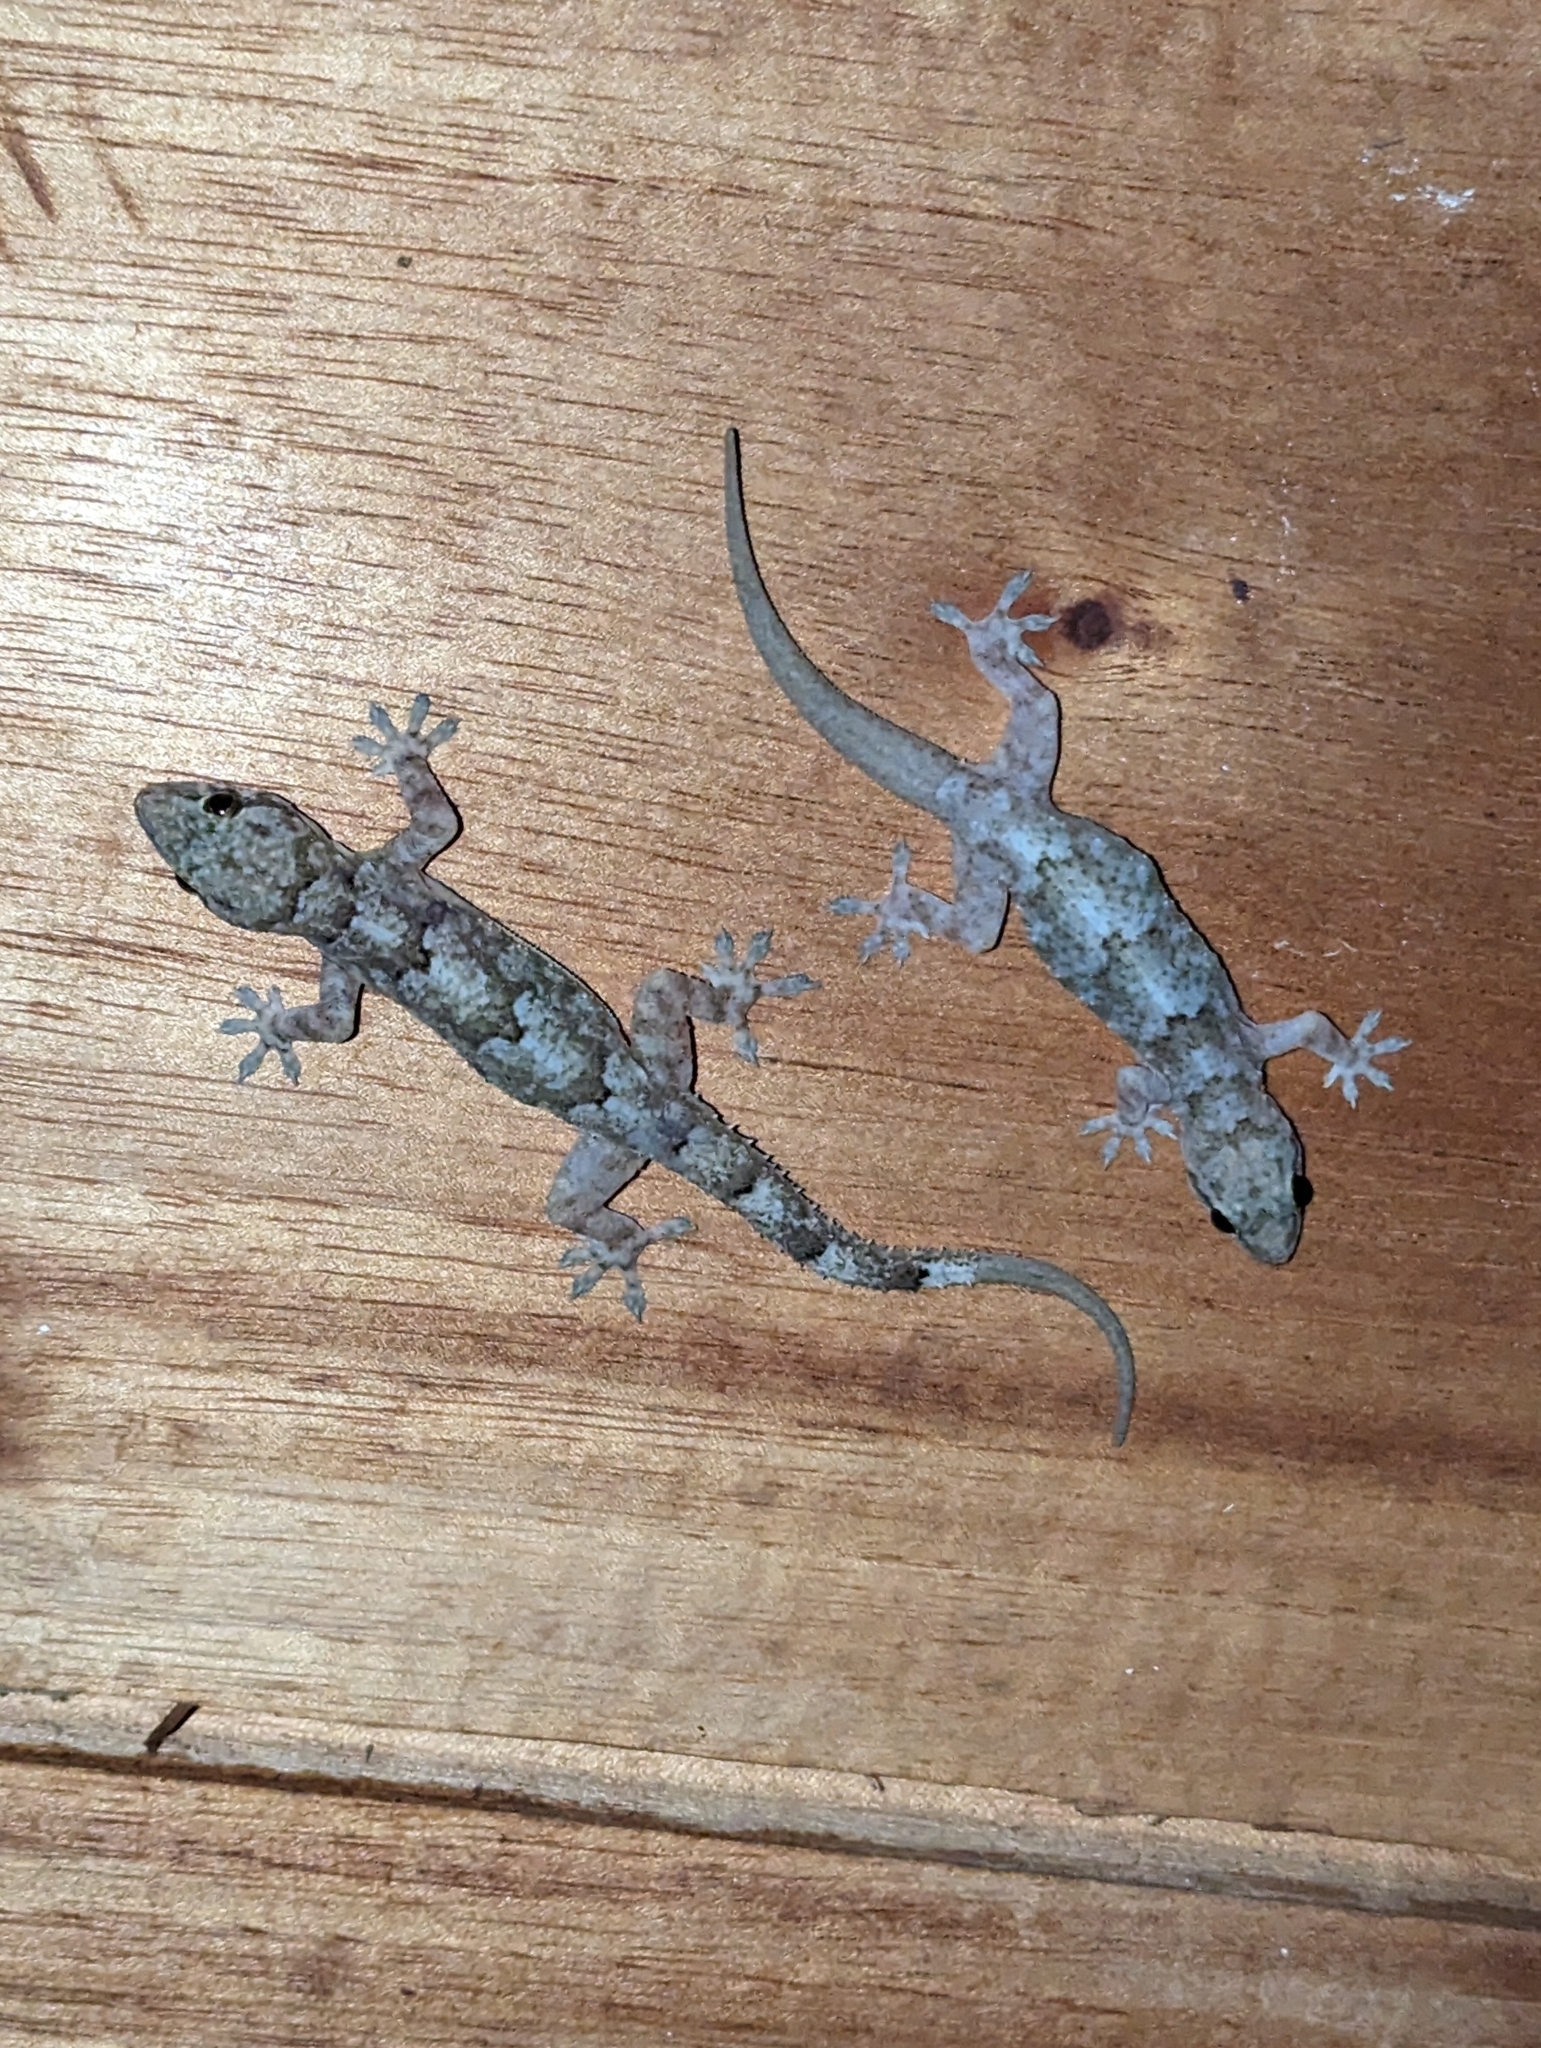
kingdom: Animalia
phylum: Chordata
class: Squamata
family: Gekkonidae
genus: Hemidactylus
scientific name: Hemidactylus mabouia
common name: House gecko
